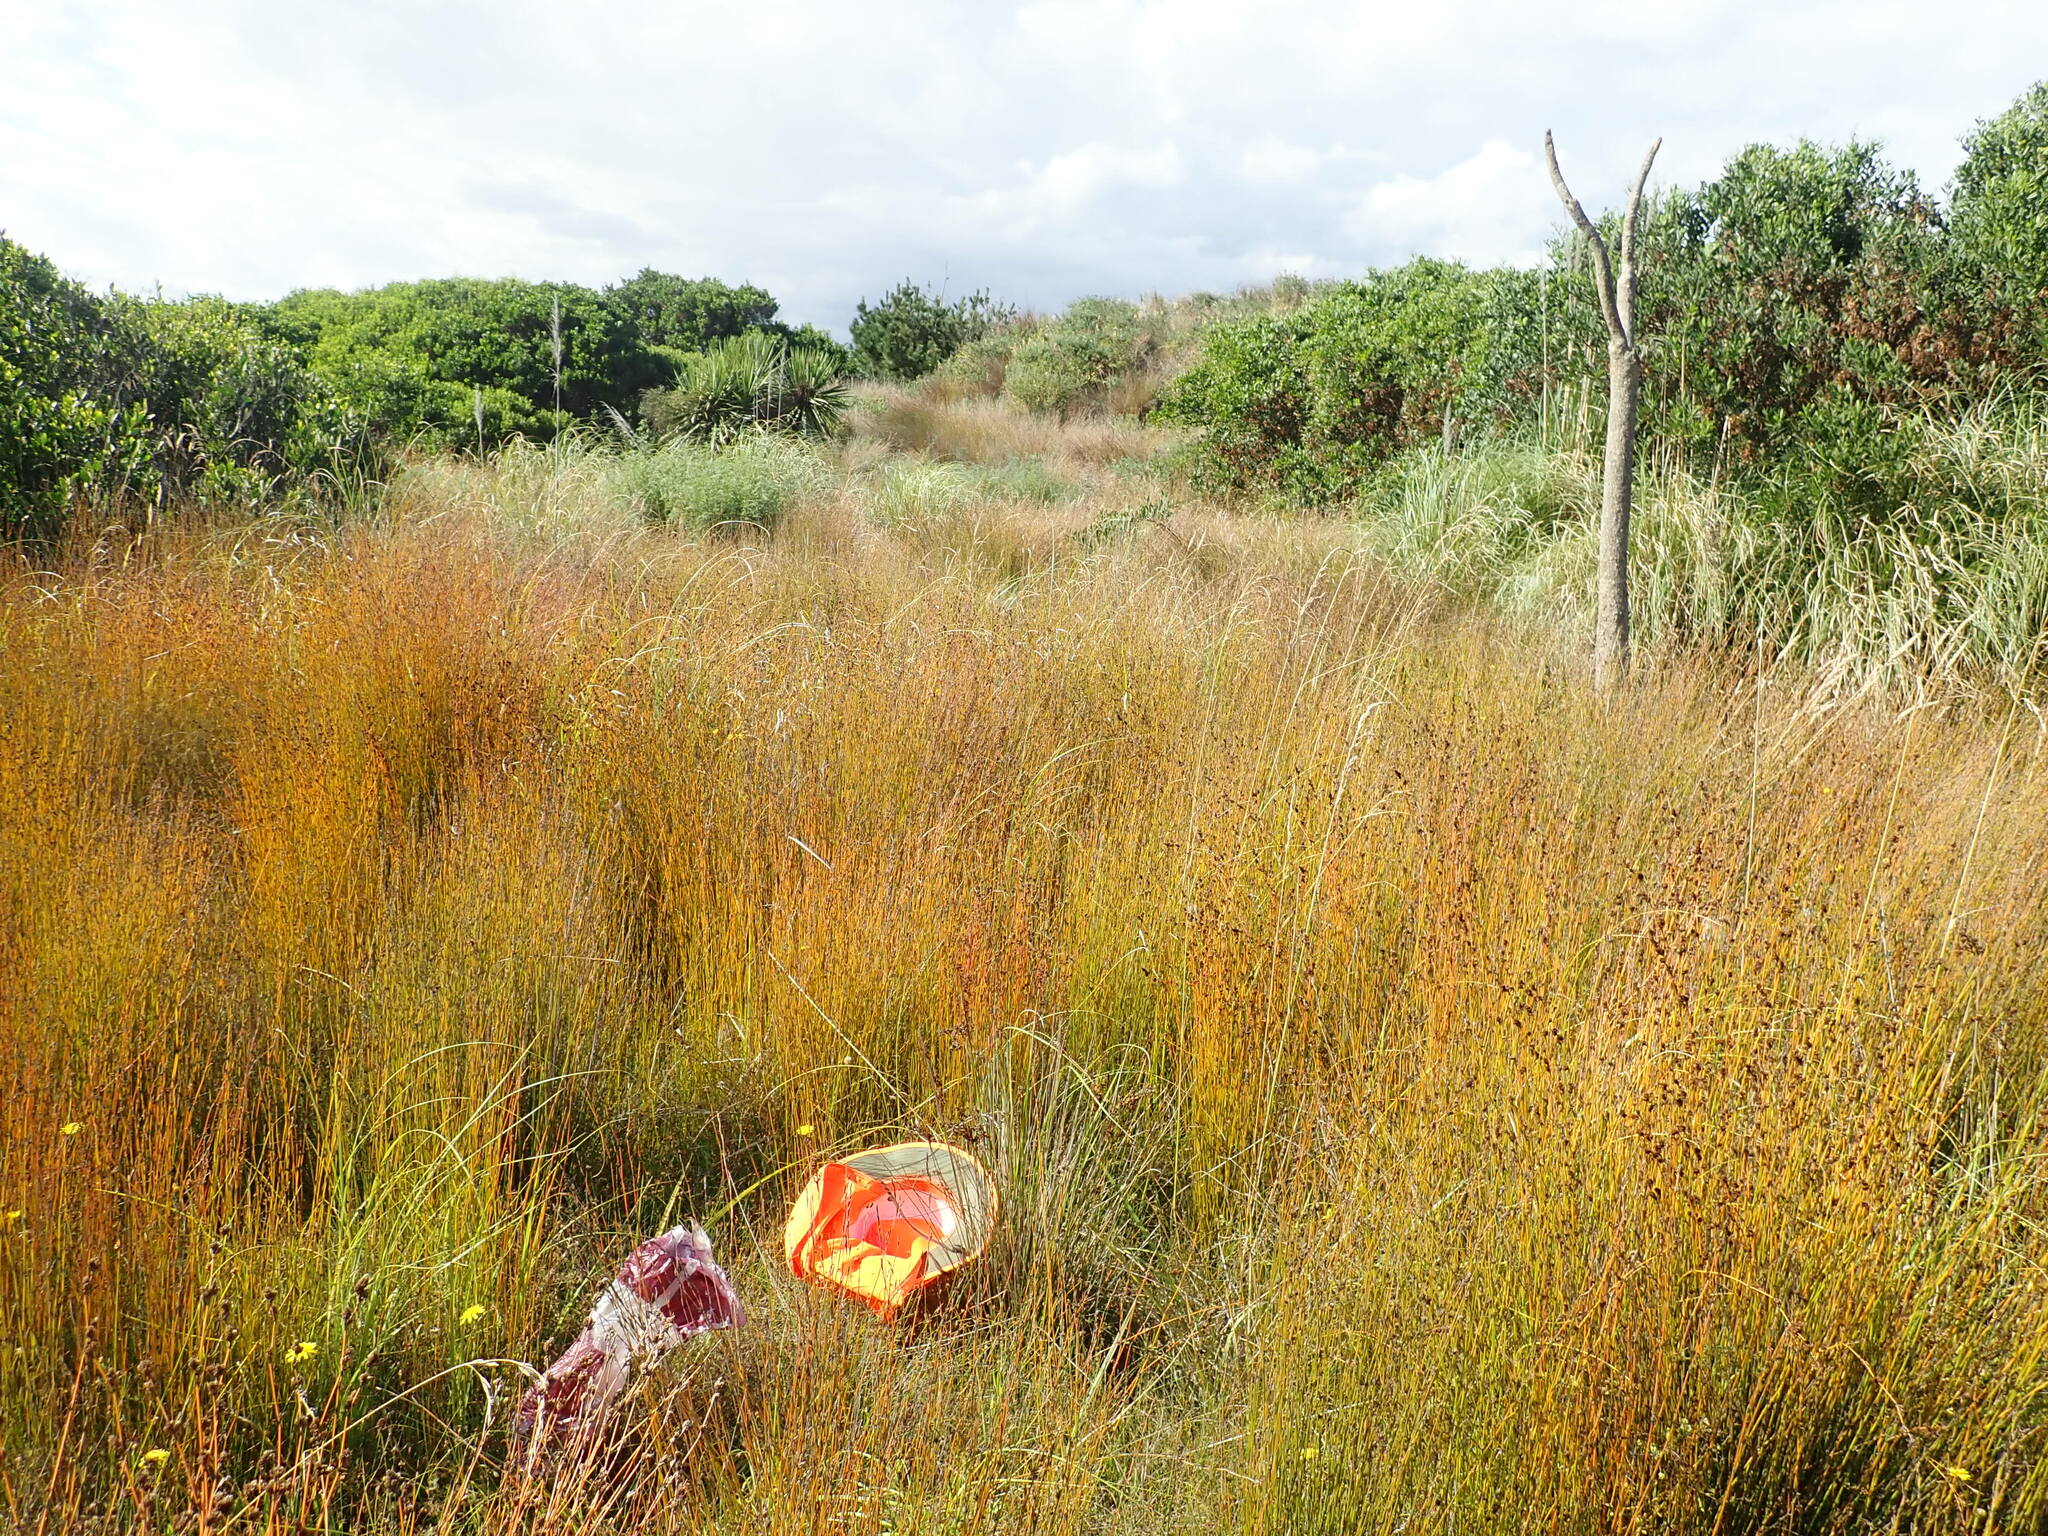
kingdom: Plantae
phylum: Tracheophyta
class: Liliopsida
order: Poales
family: Juncaceae
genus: Juncus
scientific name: Juncus kraussii
